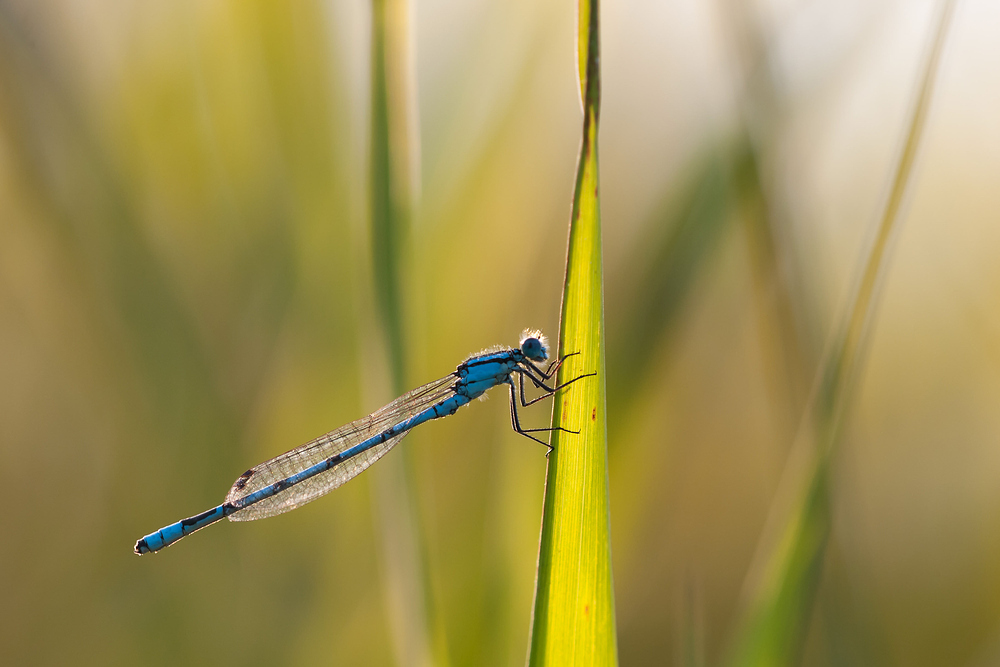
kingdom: Animalia
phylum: Arthropoda
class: Insecta
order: Odonata
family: Coenagrionidae
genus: Enallagma
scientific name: Enallagma cyathigerum
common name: Common blue damselfly
